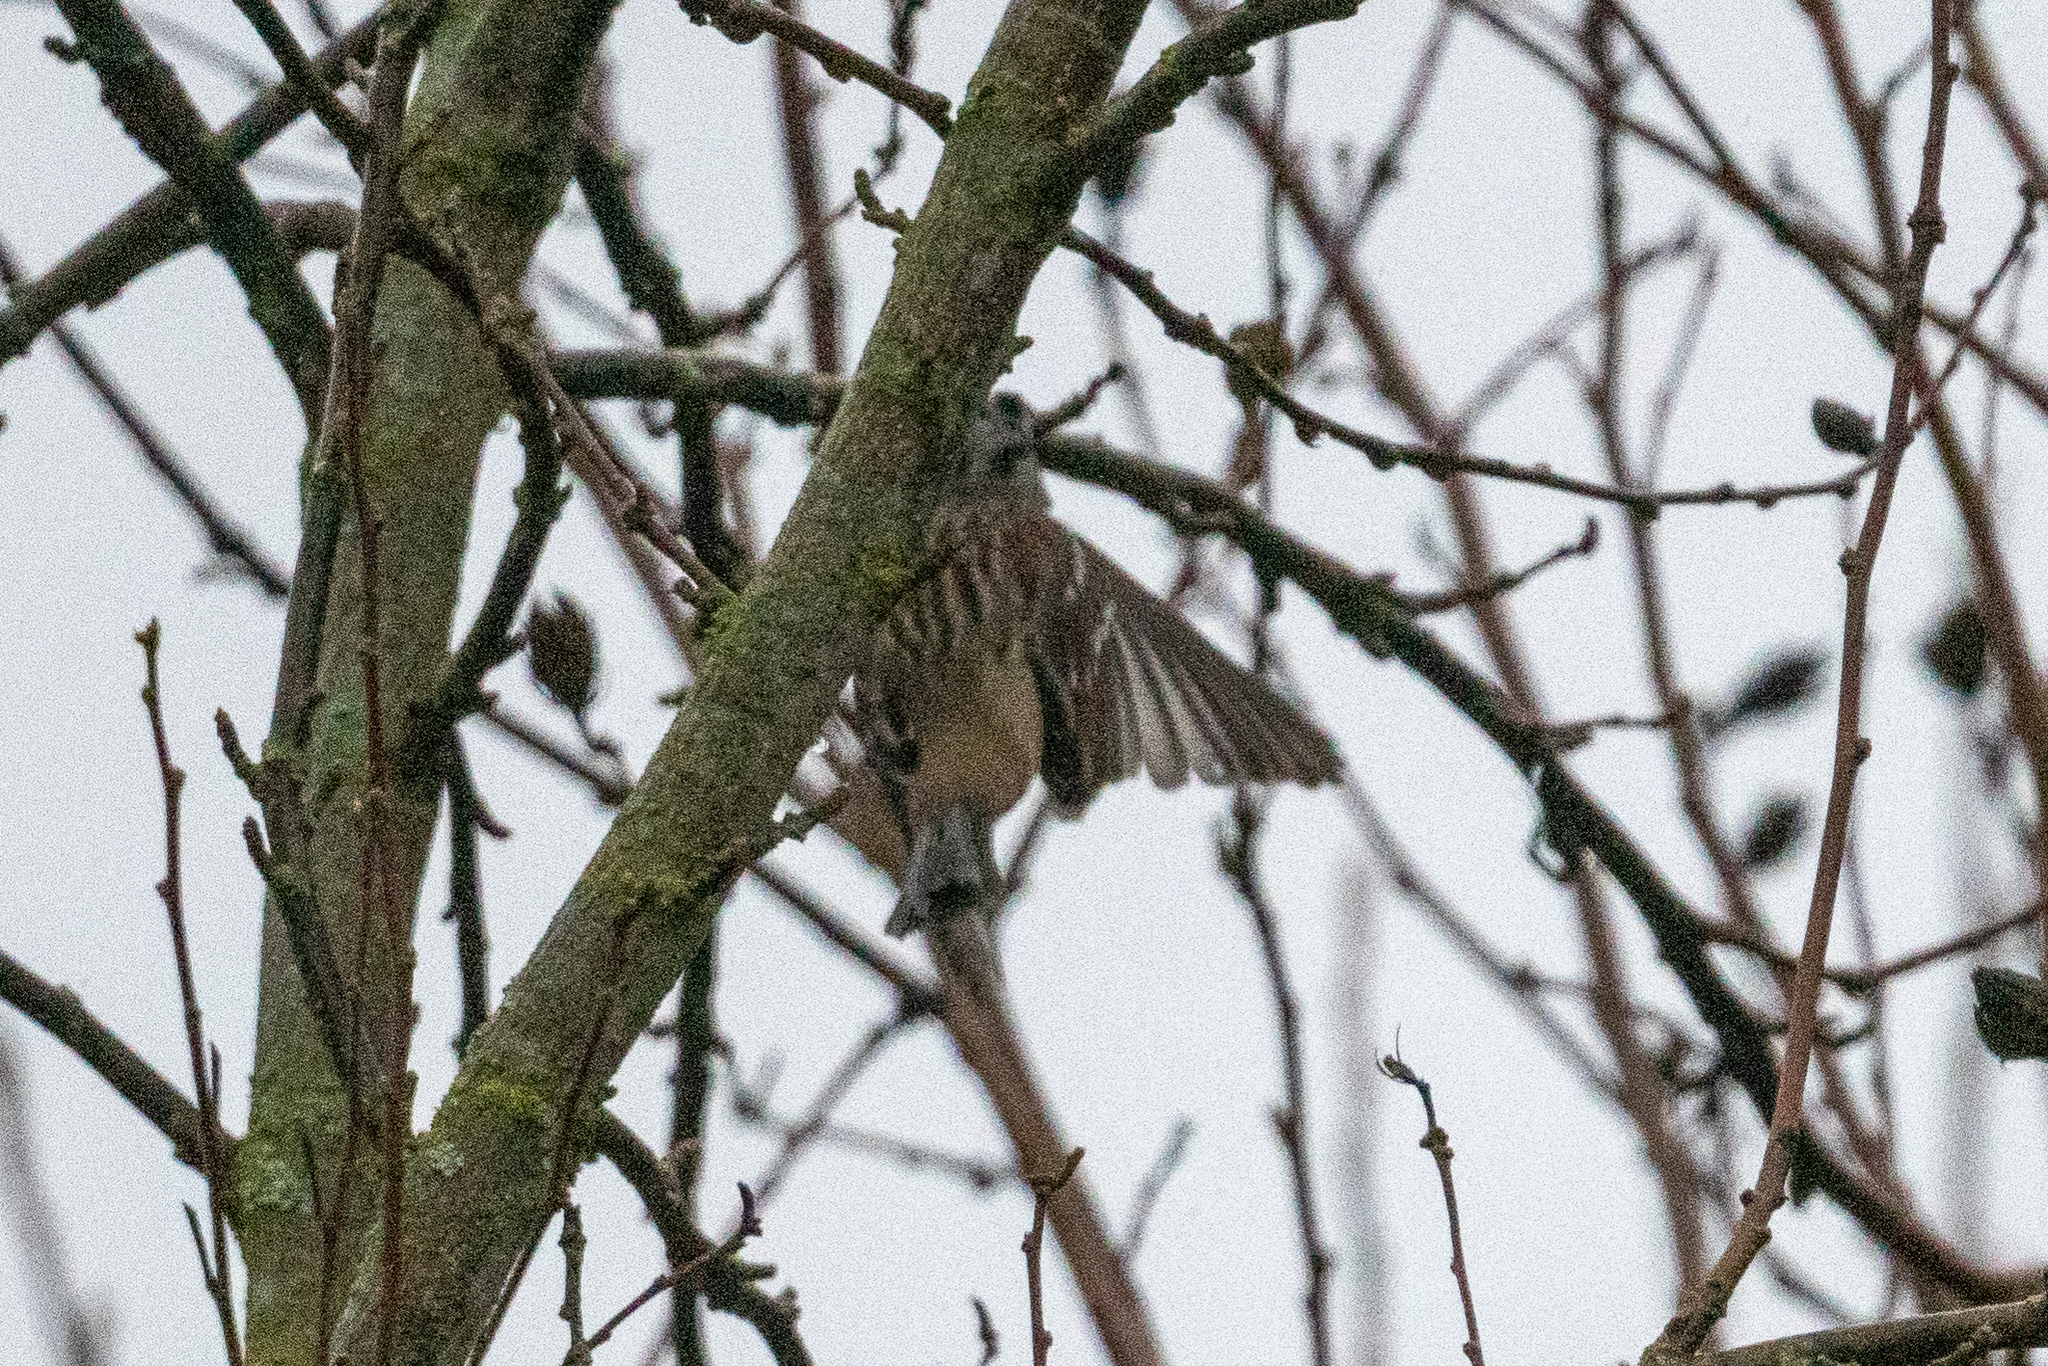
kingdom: Animalia
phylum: Chordata
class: Aves
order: Passeriformes
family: Passerellidae
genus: Zonotrichia
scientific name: Zonotrichia leucophrys
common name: White-crowned sparrow
